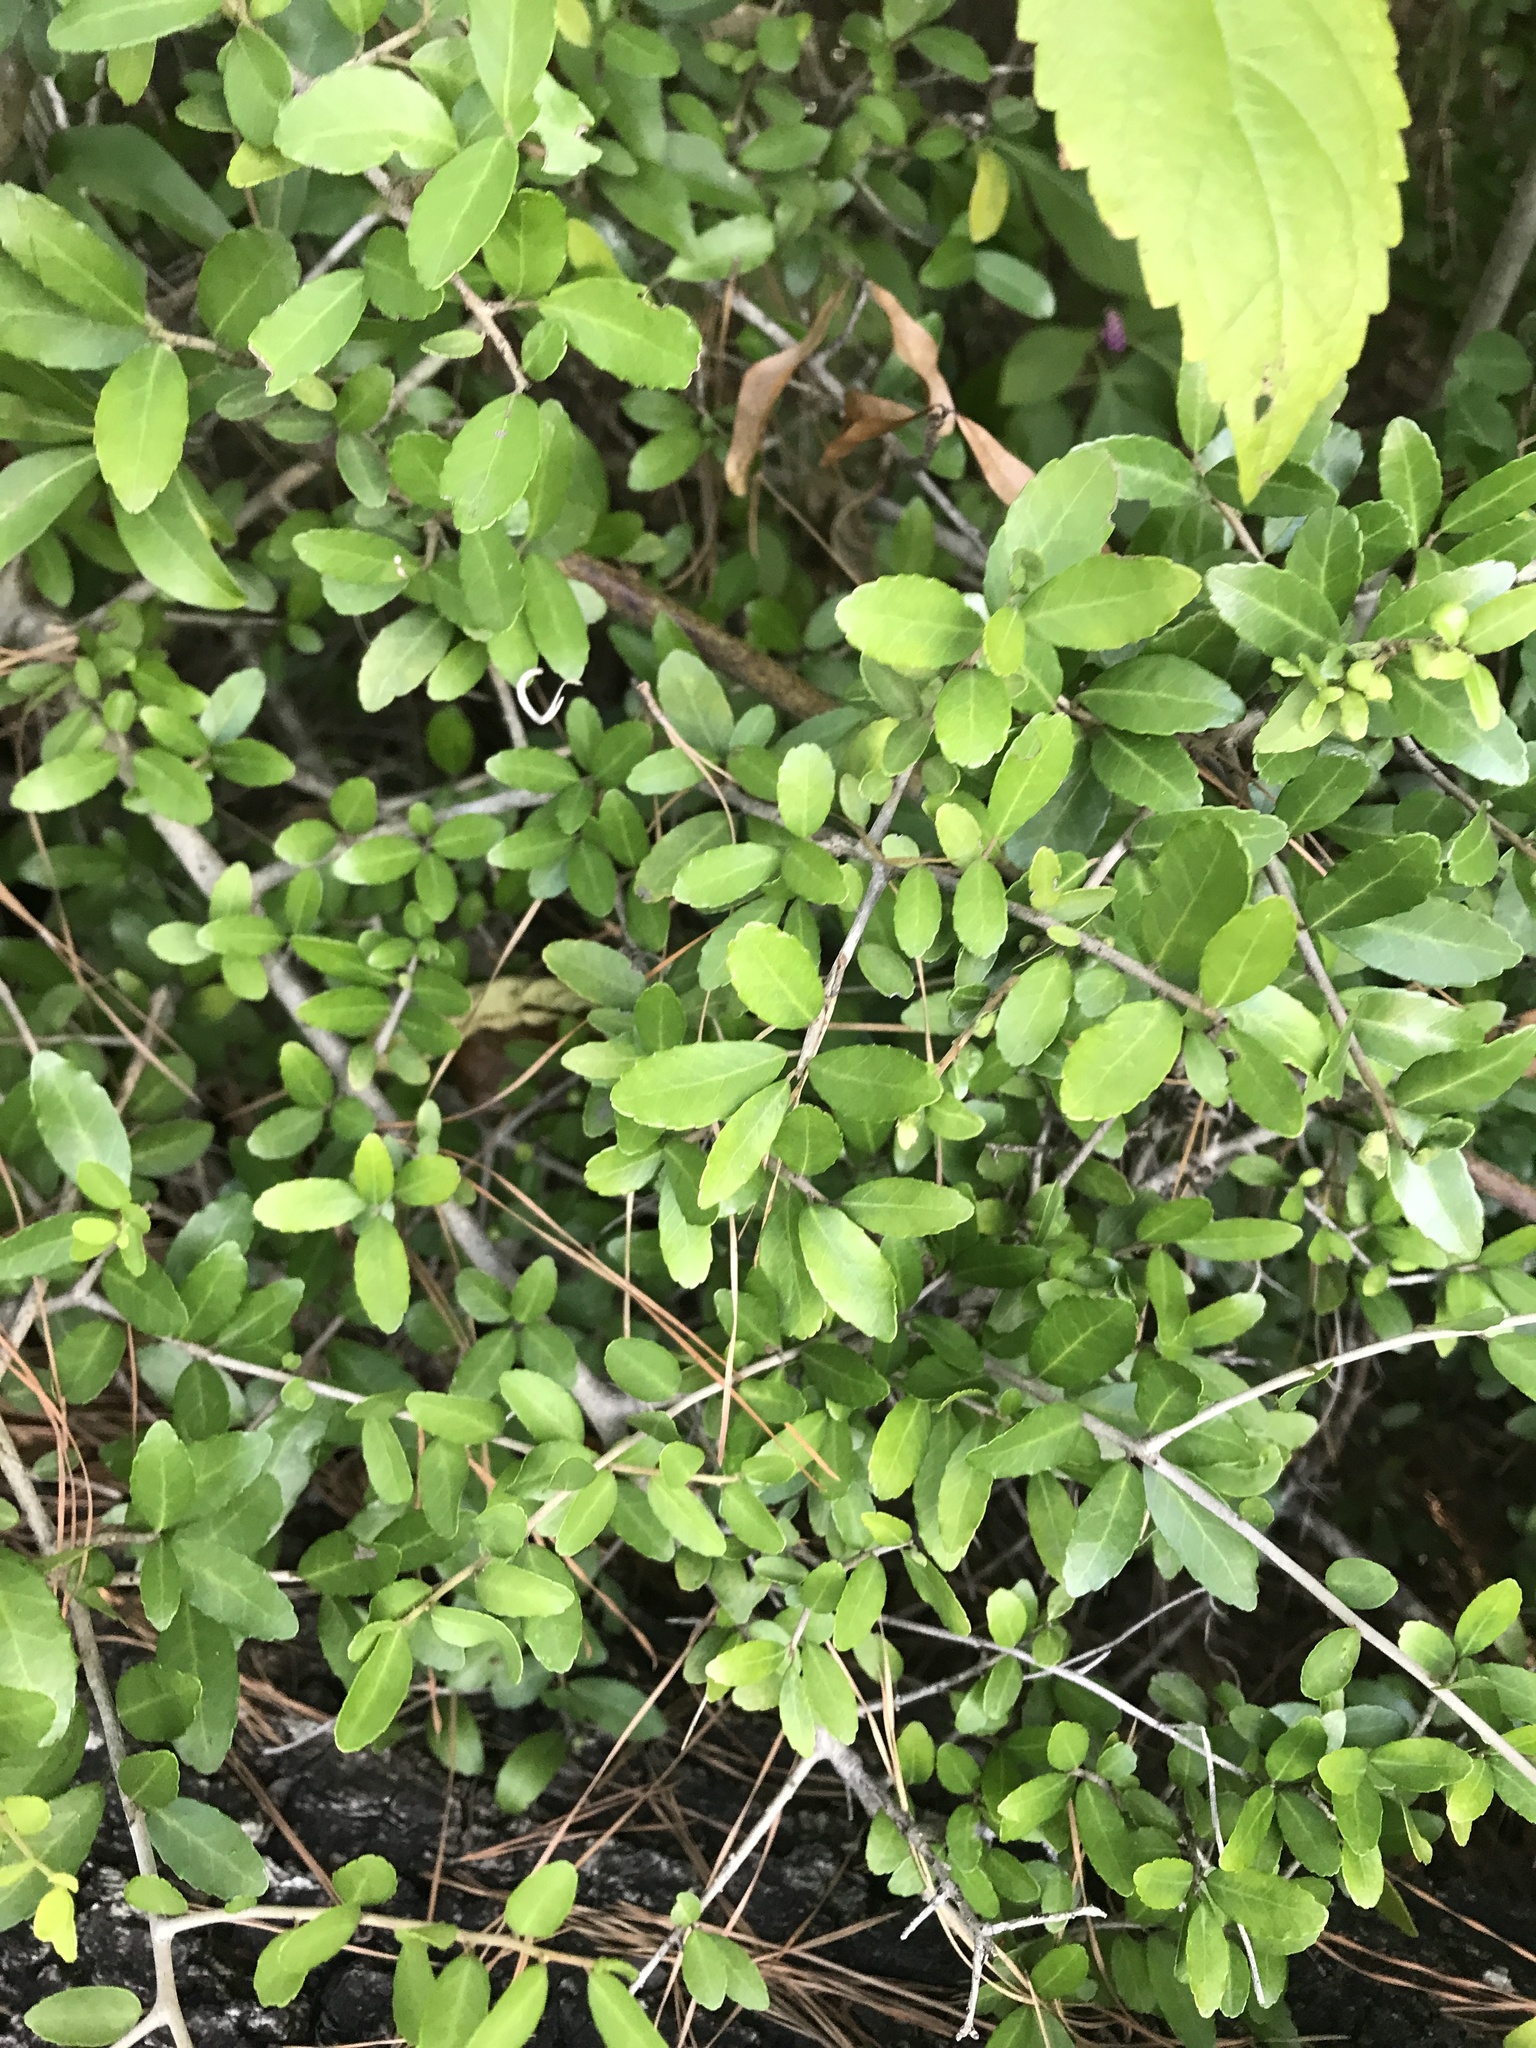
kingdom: Plantae
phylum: Tracheophyta
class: Magnoliopsida
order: Aquifoliales
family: Aquifoliaceae
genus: Ilex
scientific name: Ilex vomitoria
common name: Yaupon holly
